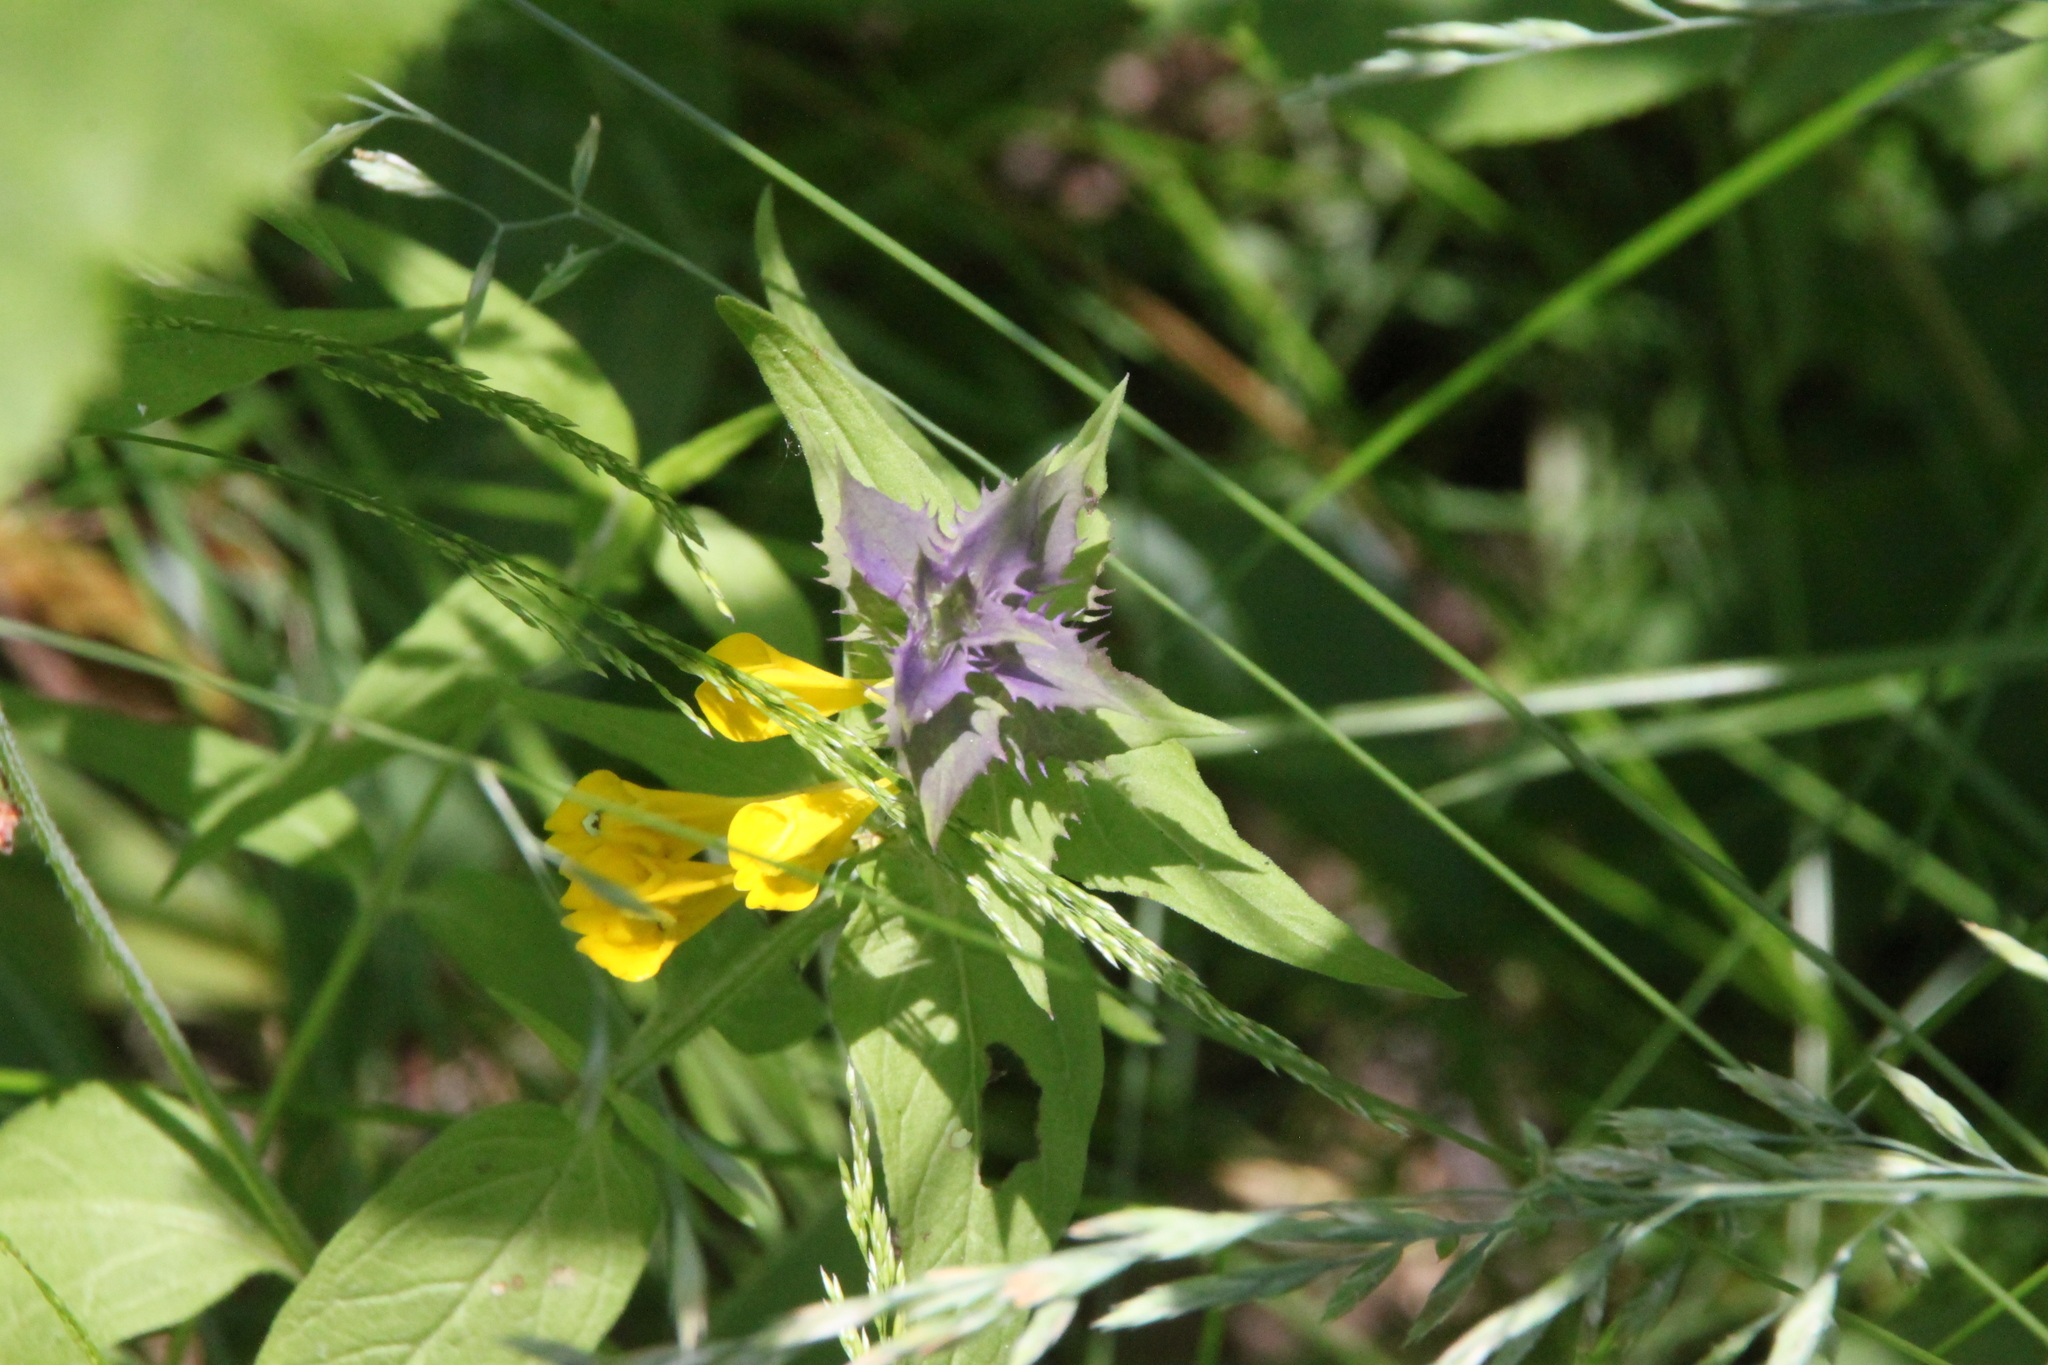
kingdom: Plantae
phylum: Tracheophyta
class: Magnoliopsida
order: Lamiales
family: Orobanchaceae
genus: Melampyrum
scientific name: Melampyrum nemorosum
